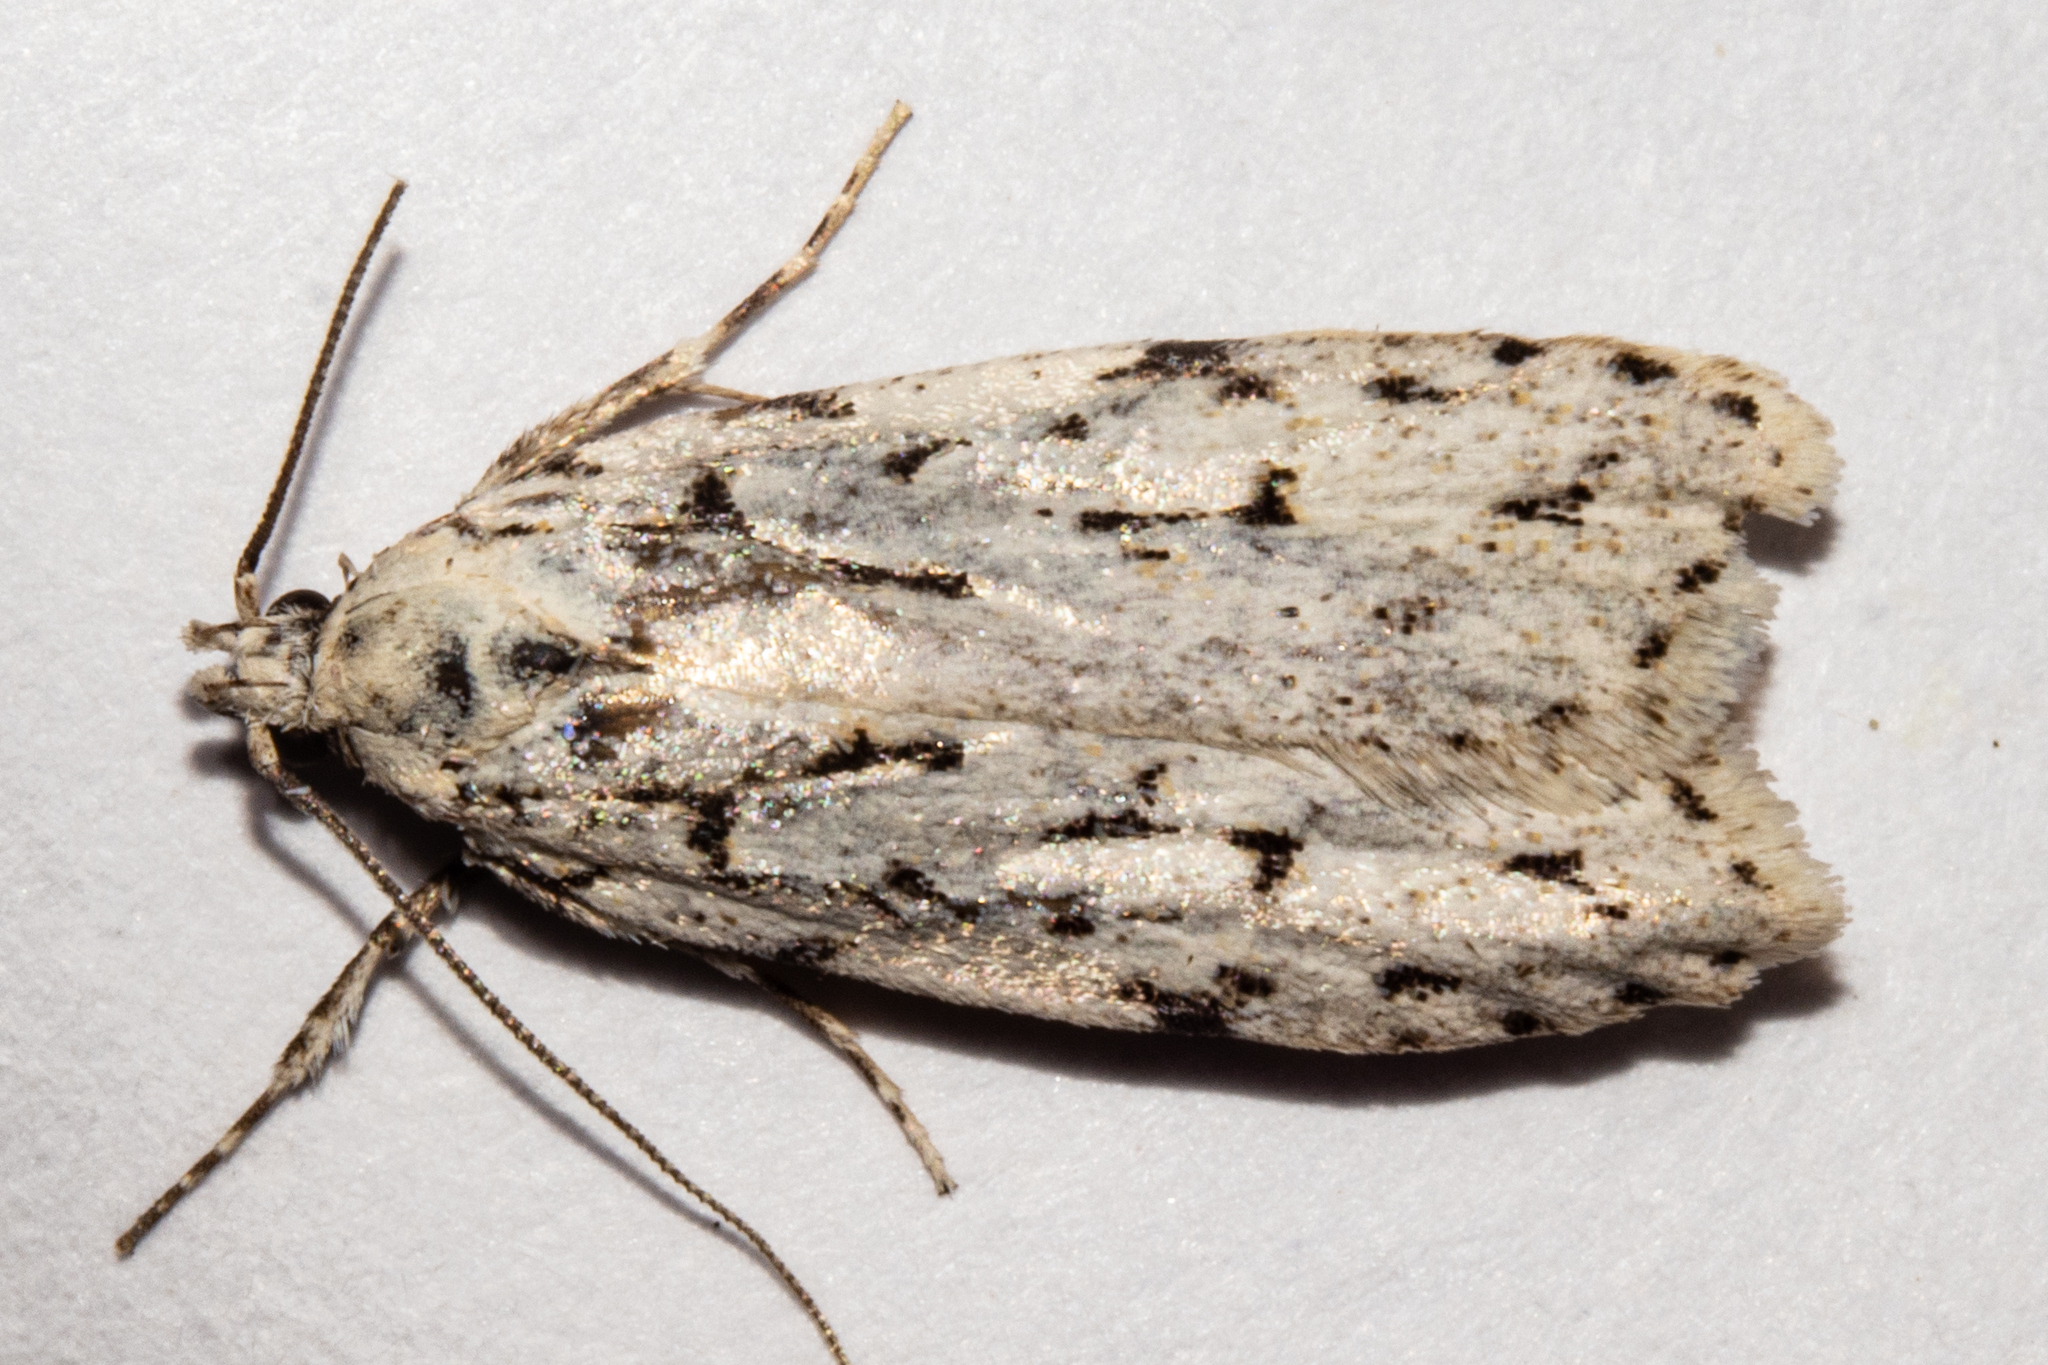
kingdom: Animalia
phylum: Arthropoda
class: Insecta
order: Lepidoptera
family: Oecophoridae
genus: Izatha
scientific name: Izatha heroica
